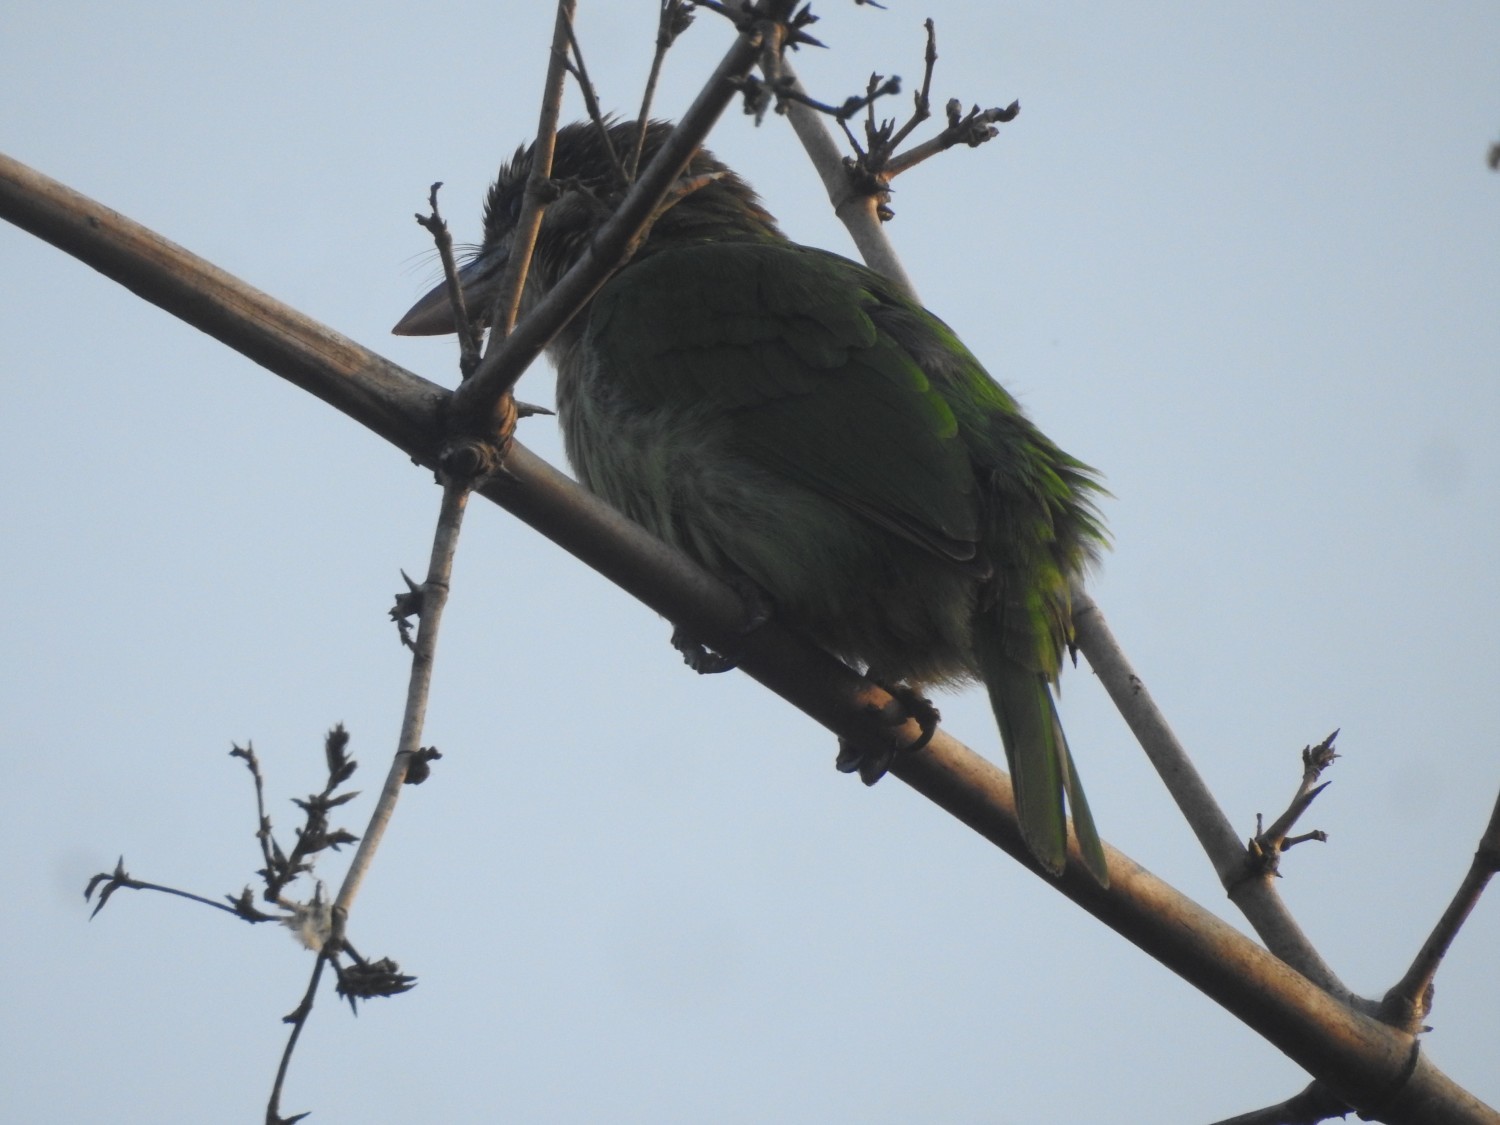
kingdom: Animalia
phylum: Chordata
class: Aves
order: Piciformes
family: Megalaimidae
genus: Psilopogon
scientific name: Psilopogon viridis
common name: White-cheeked barbet
